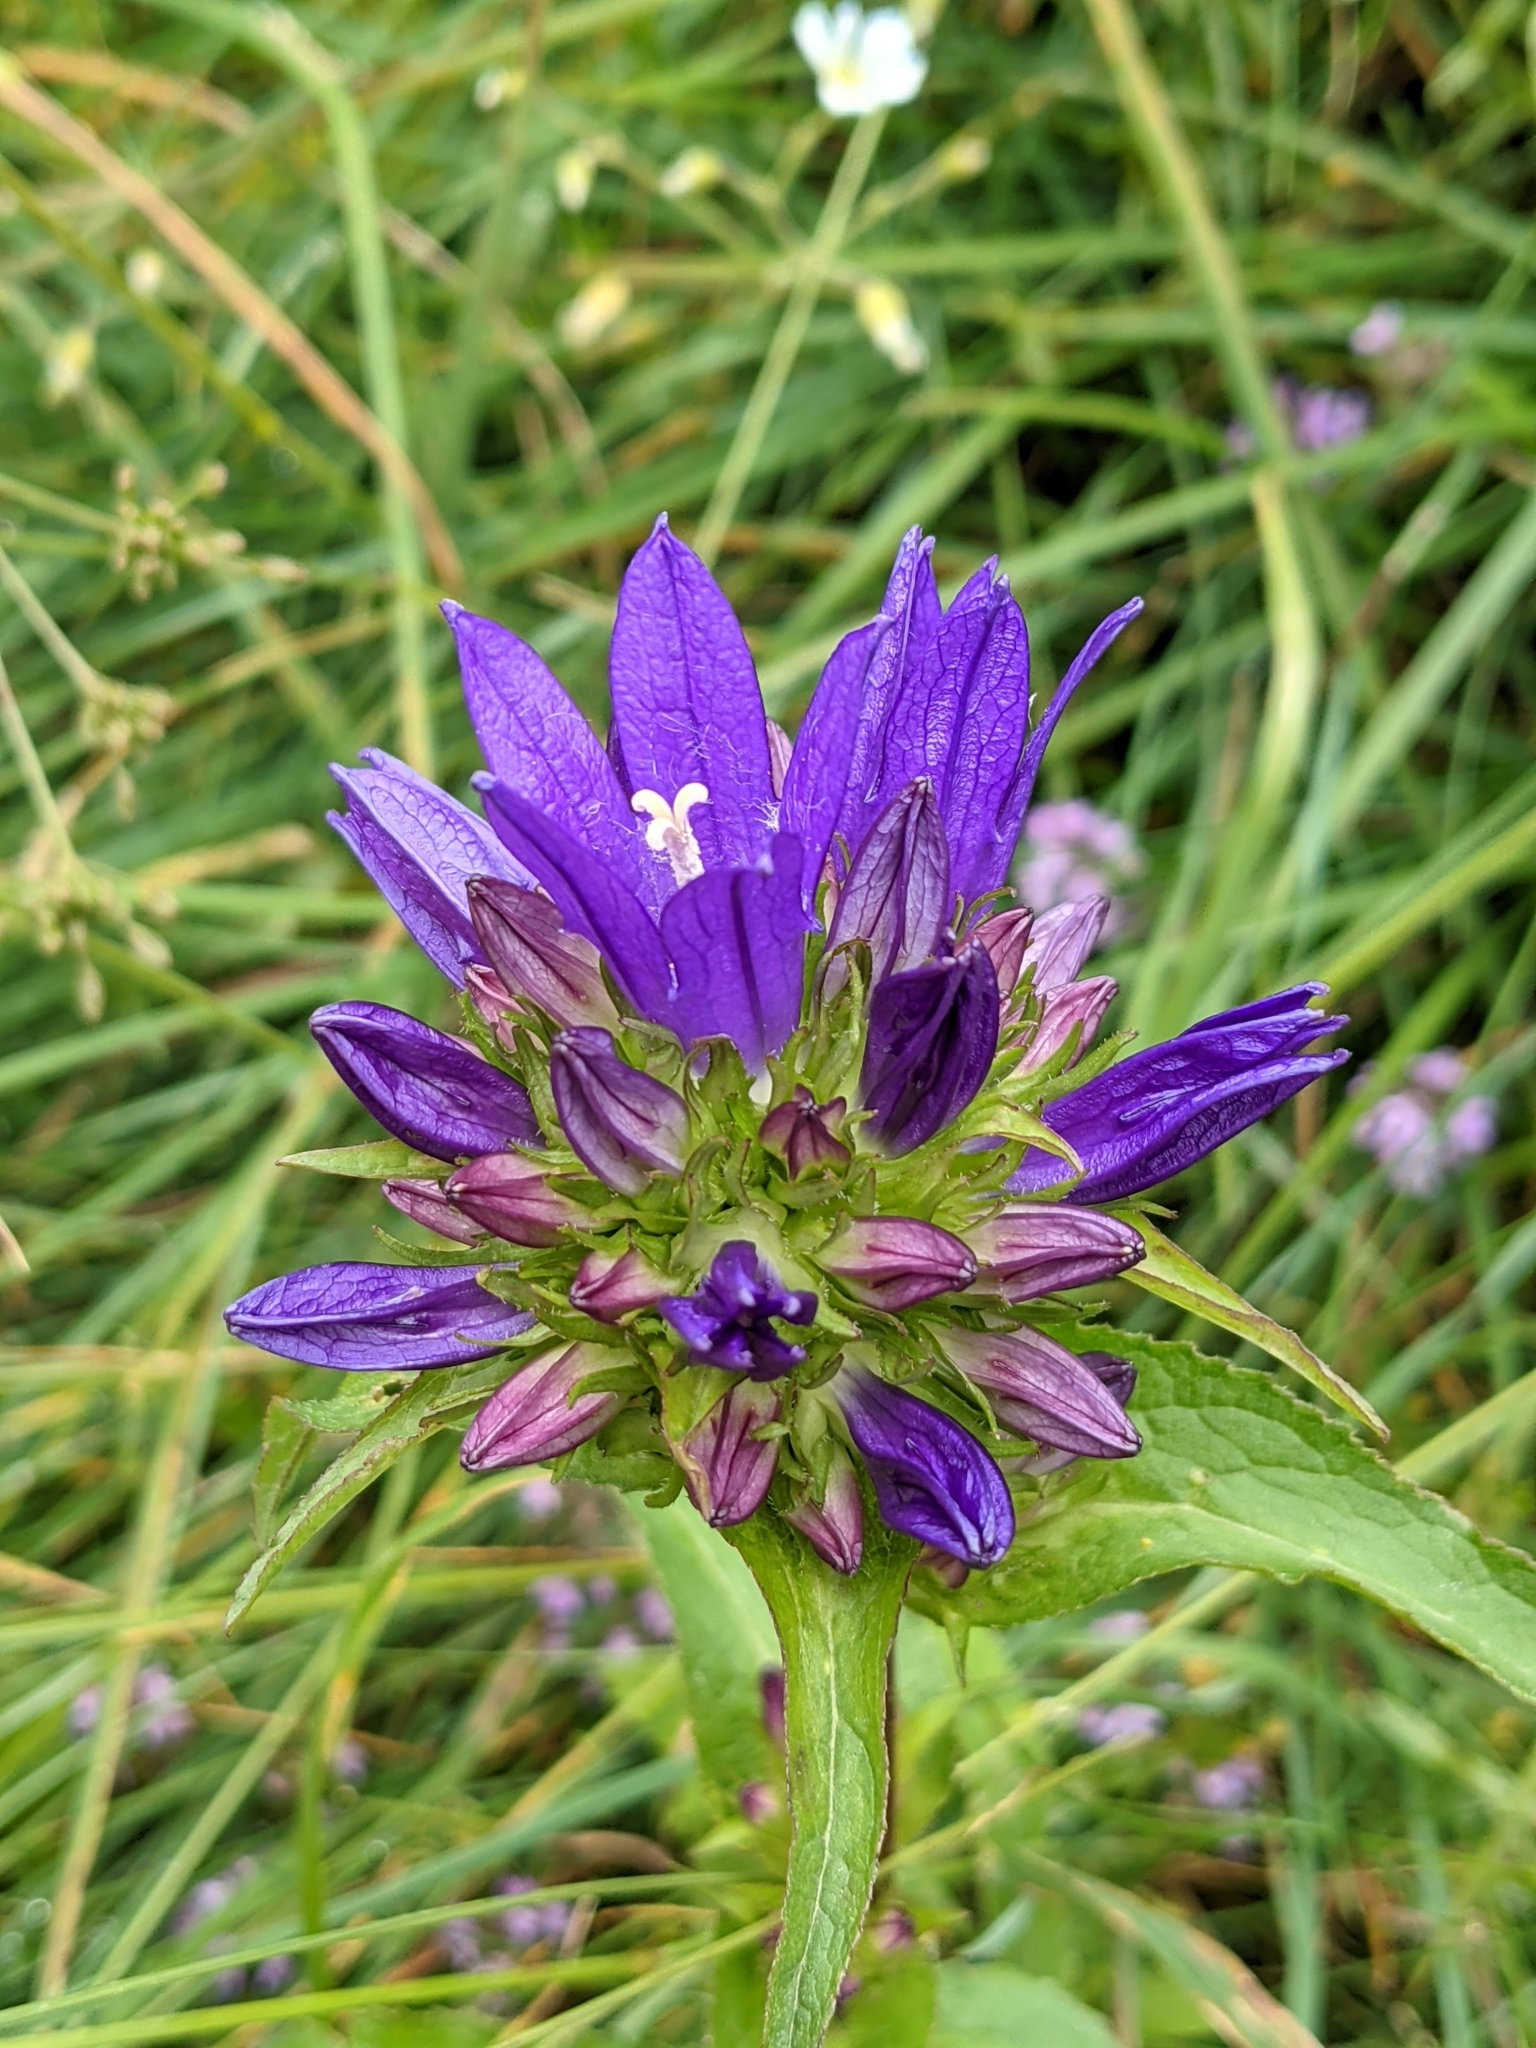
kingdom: Plantae
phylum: Tracheophyta
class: Magnoliopsida
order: Asterales
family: Campanulaceae
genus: Campanula
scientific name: Campanula glomerata
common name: Clustered bellflower
